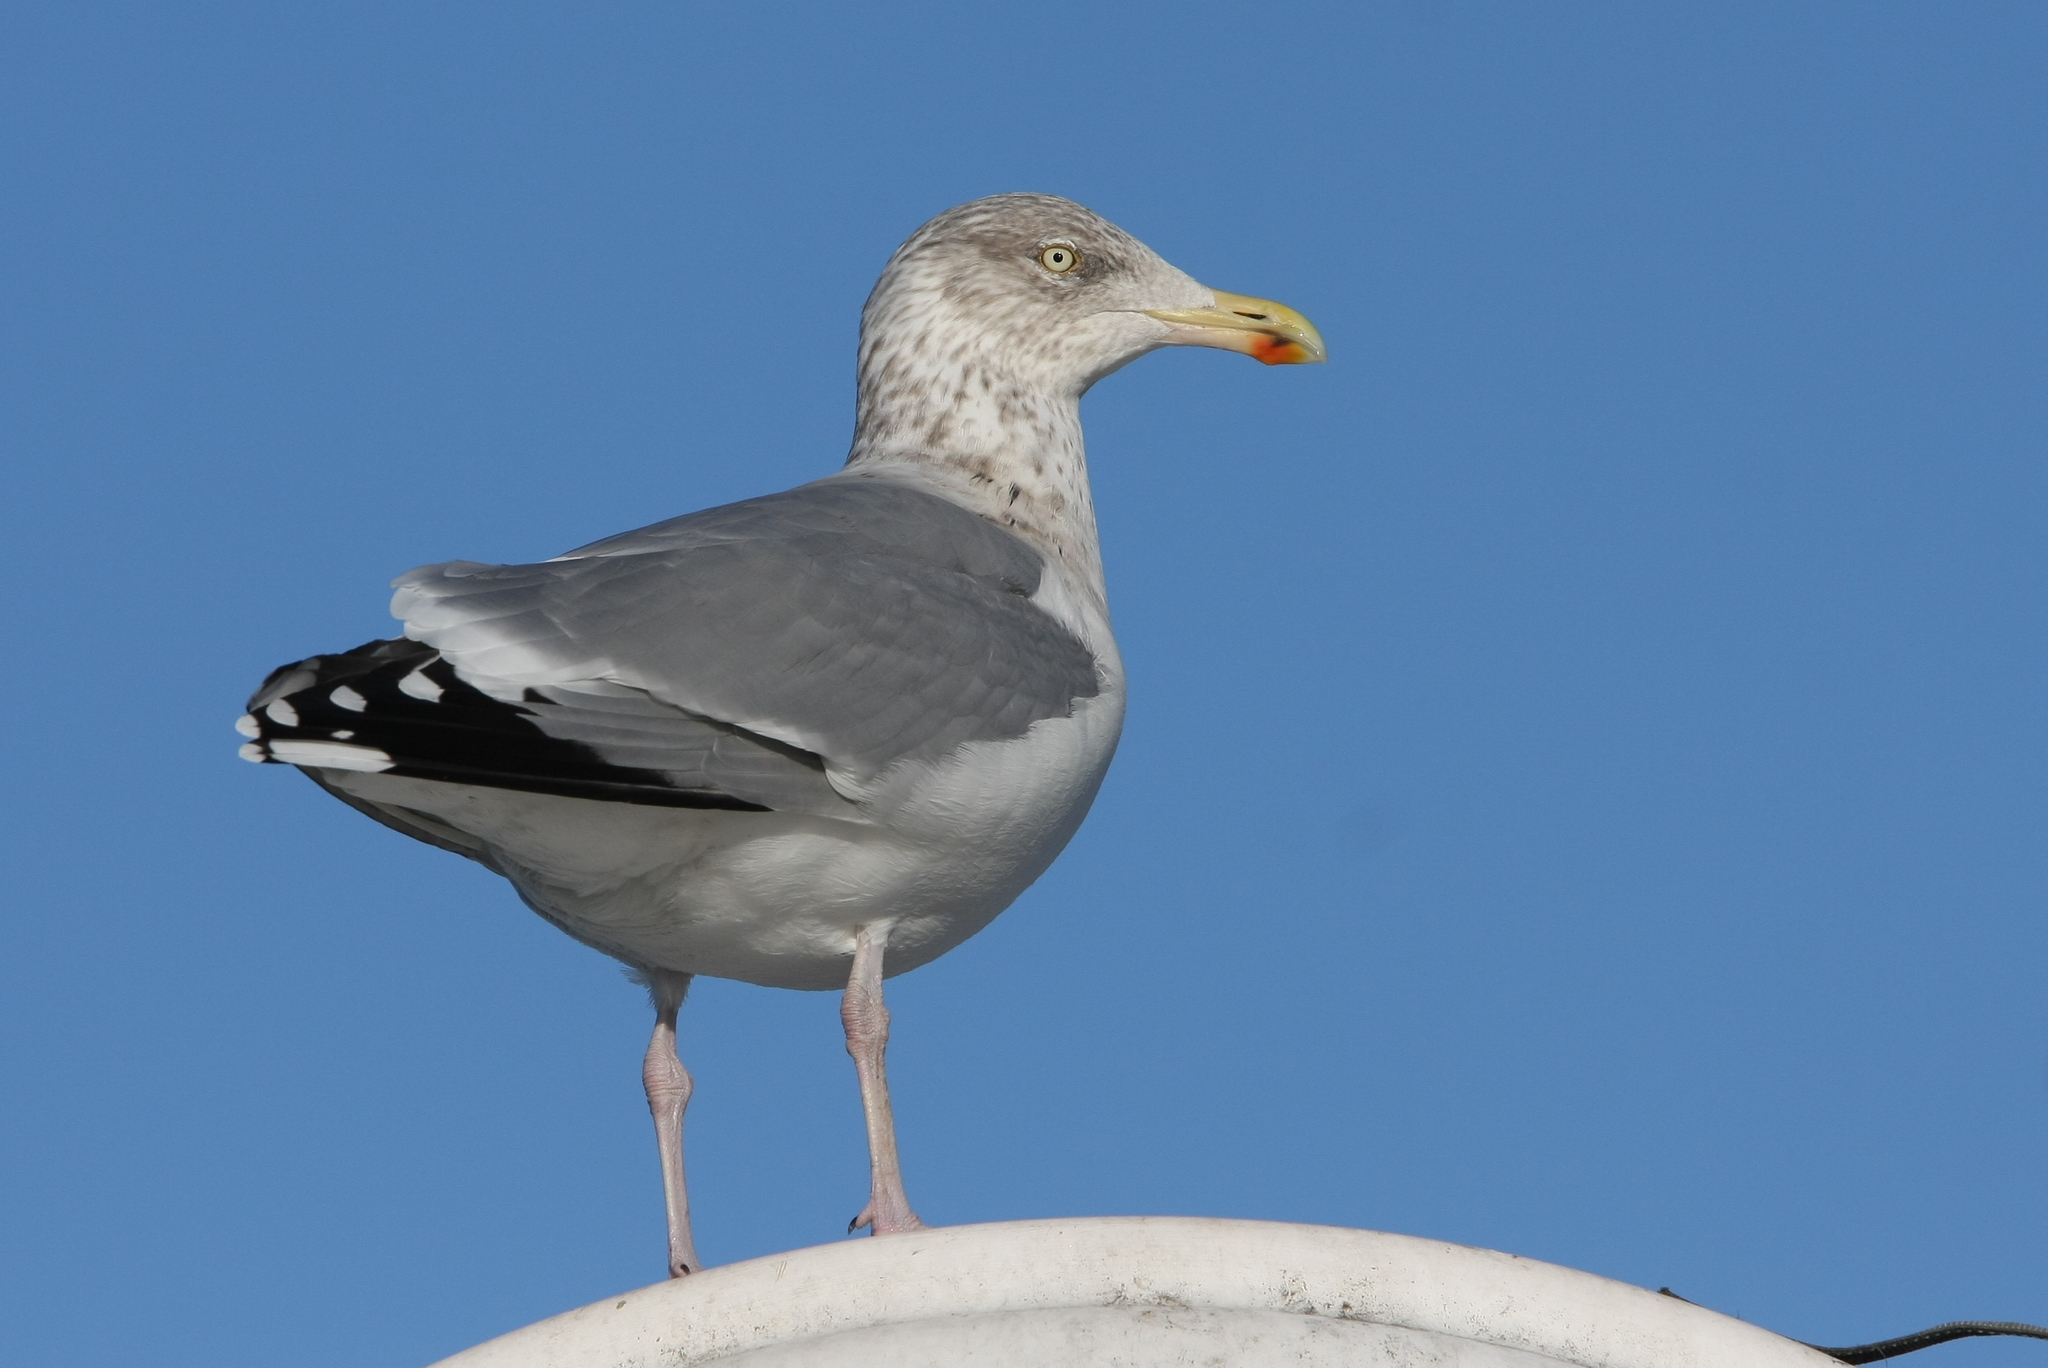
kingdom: Animalia
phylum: Chordata
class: Aves
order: Charadriiformes
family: Laridae
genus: Larus
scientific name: Larus argentatus
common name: Herring gull
